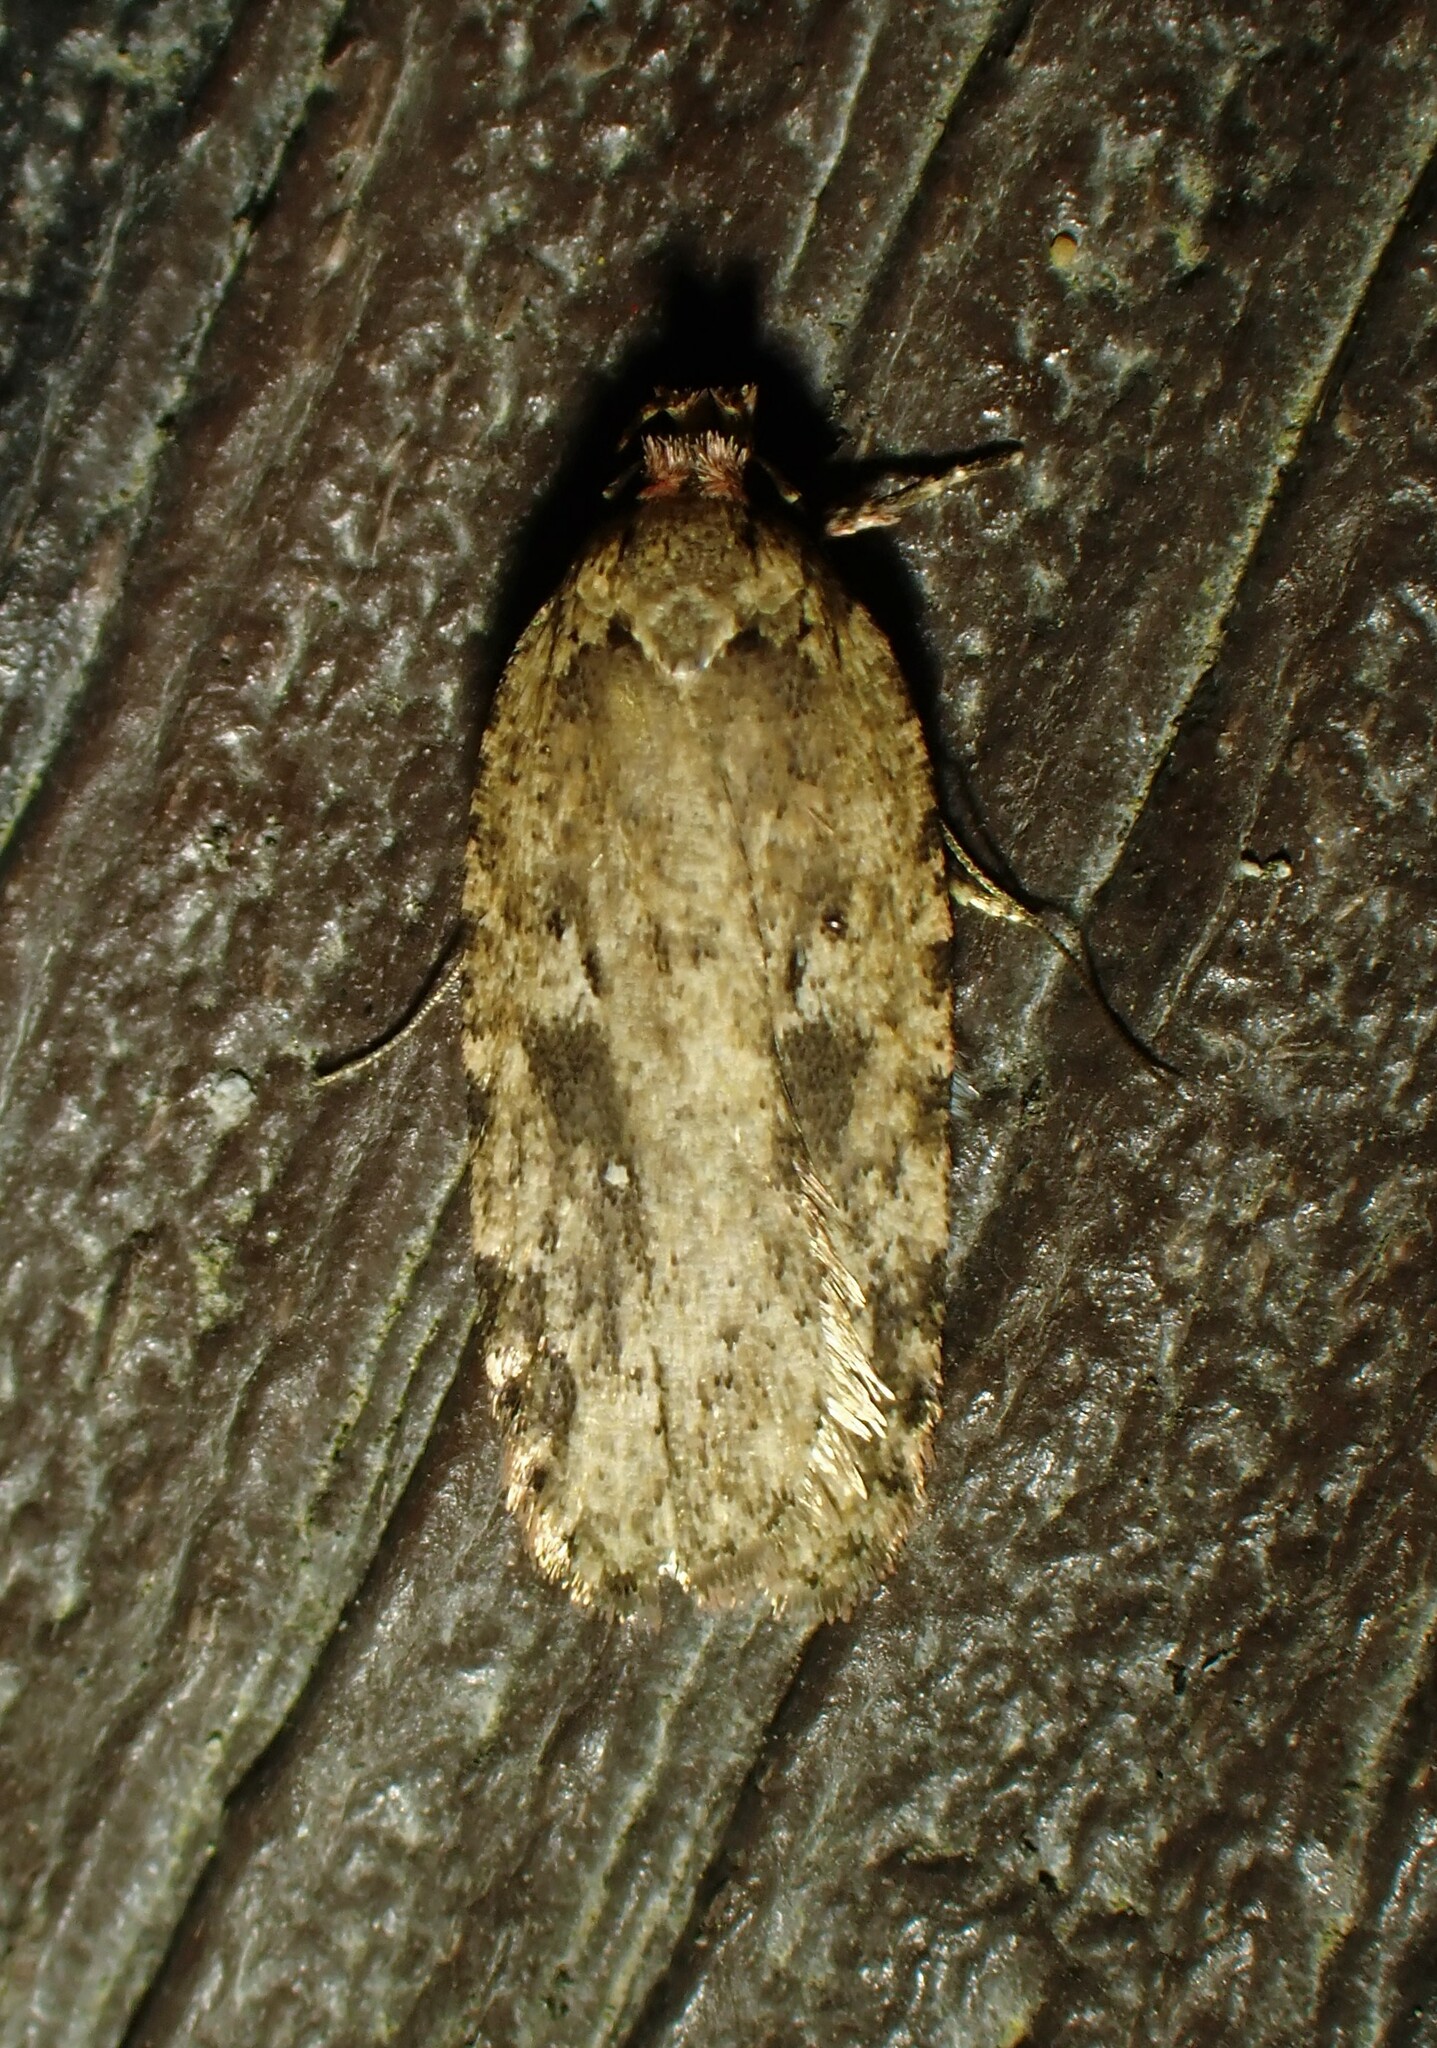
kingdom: Animalia
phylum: Arthropoda
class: Insecta
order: Lepidoptera
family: Depressariidae
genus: Agonopterix
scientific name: Agonopterix pulvipennella
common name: Goldenrod leafffolder
